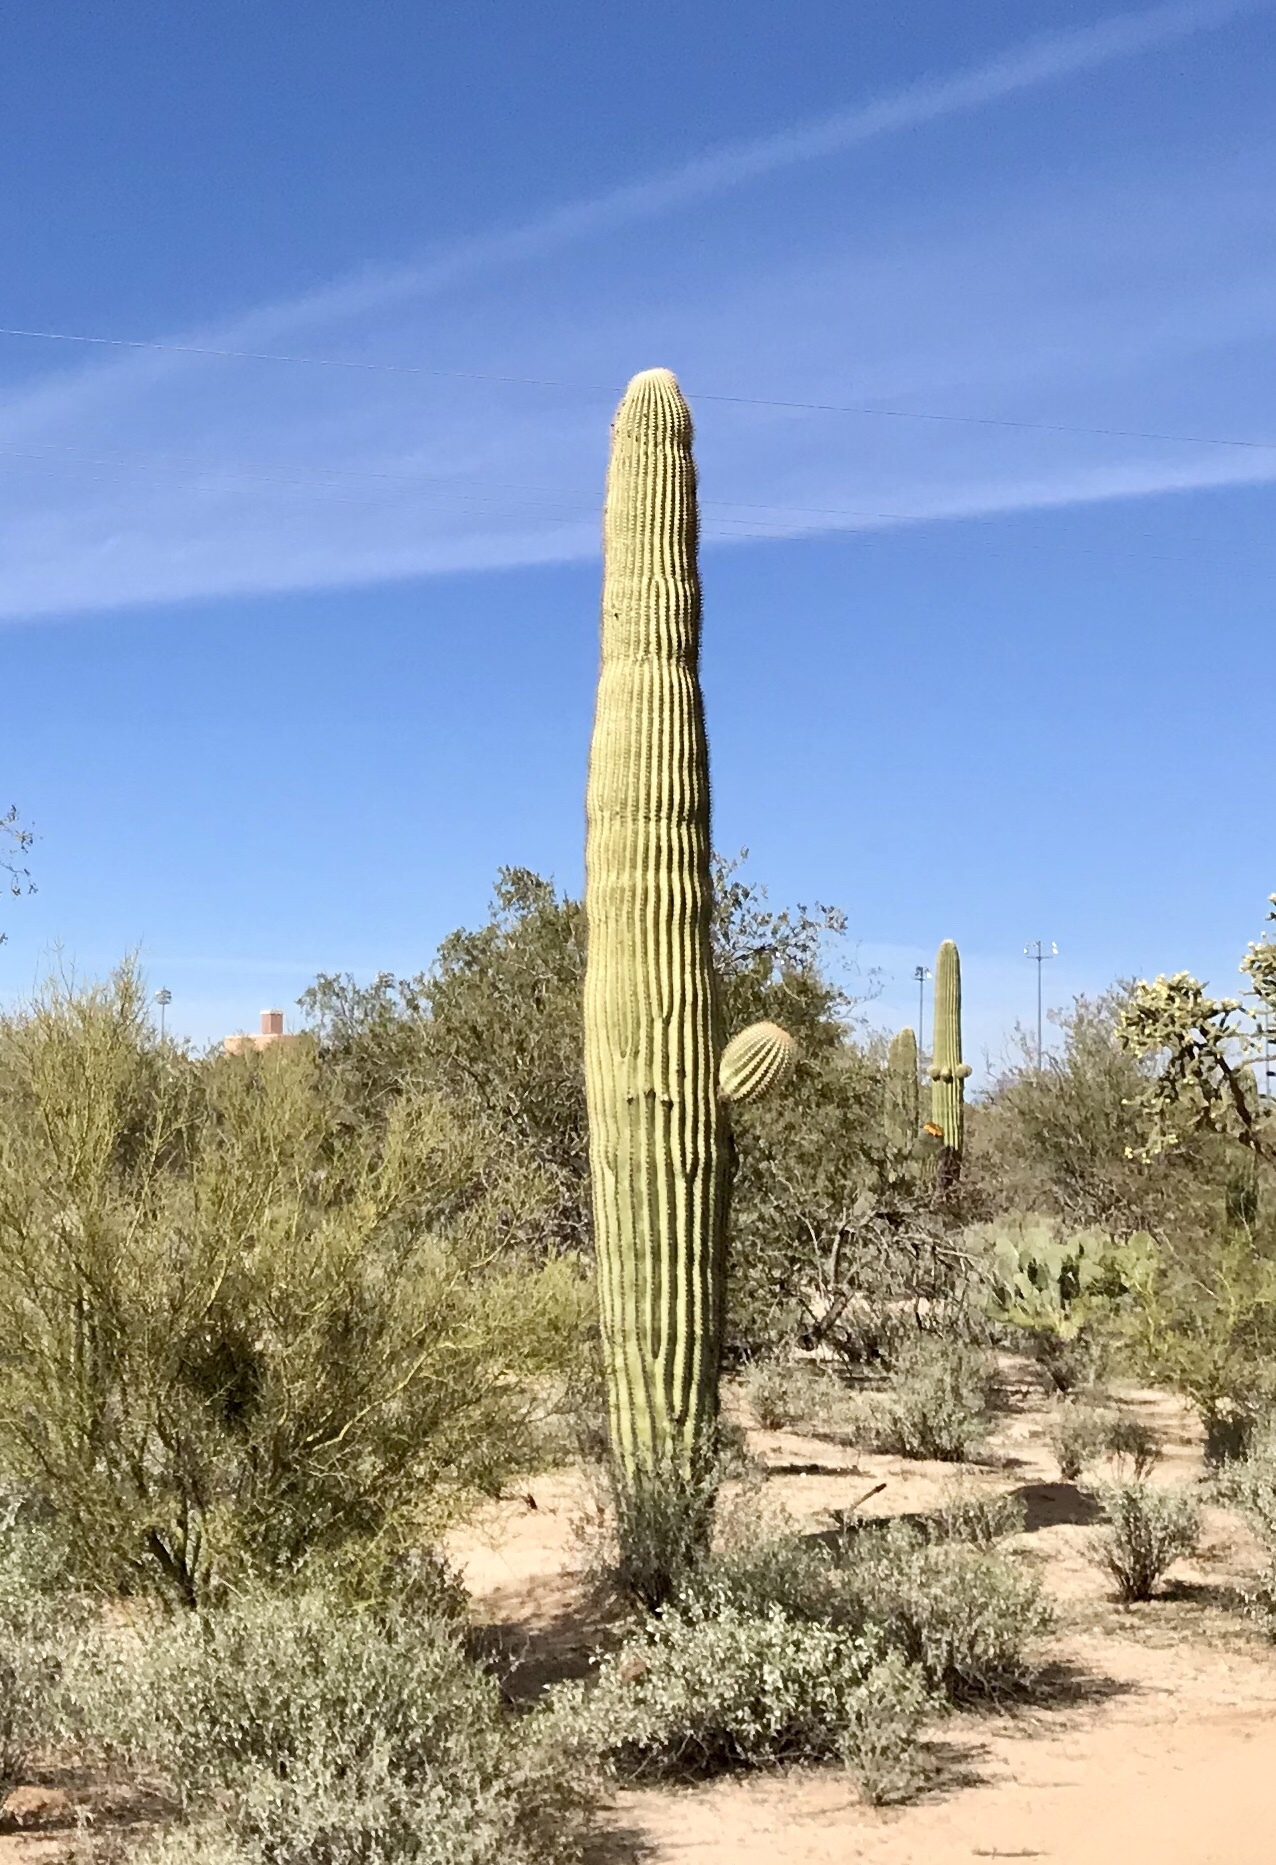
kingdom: Plantae
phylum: Tracheophyta
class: Magnoliopsida
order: Caryophyllales
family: Cactaceae
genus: Carnegiea
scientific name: Carnegiea gigantea
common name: Saguaro
